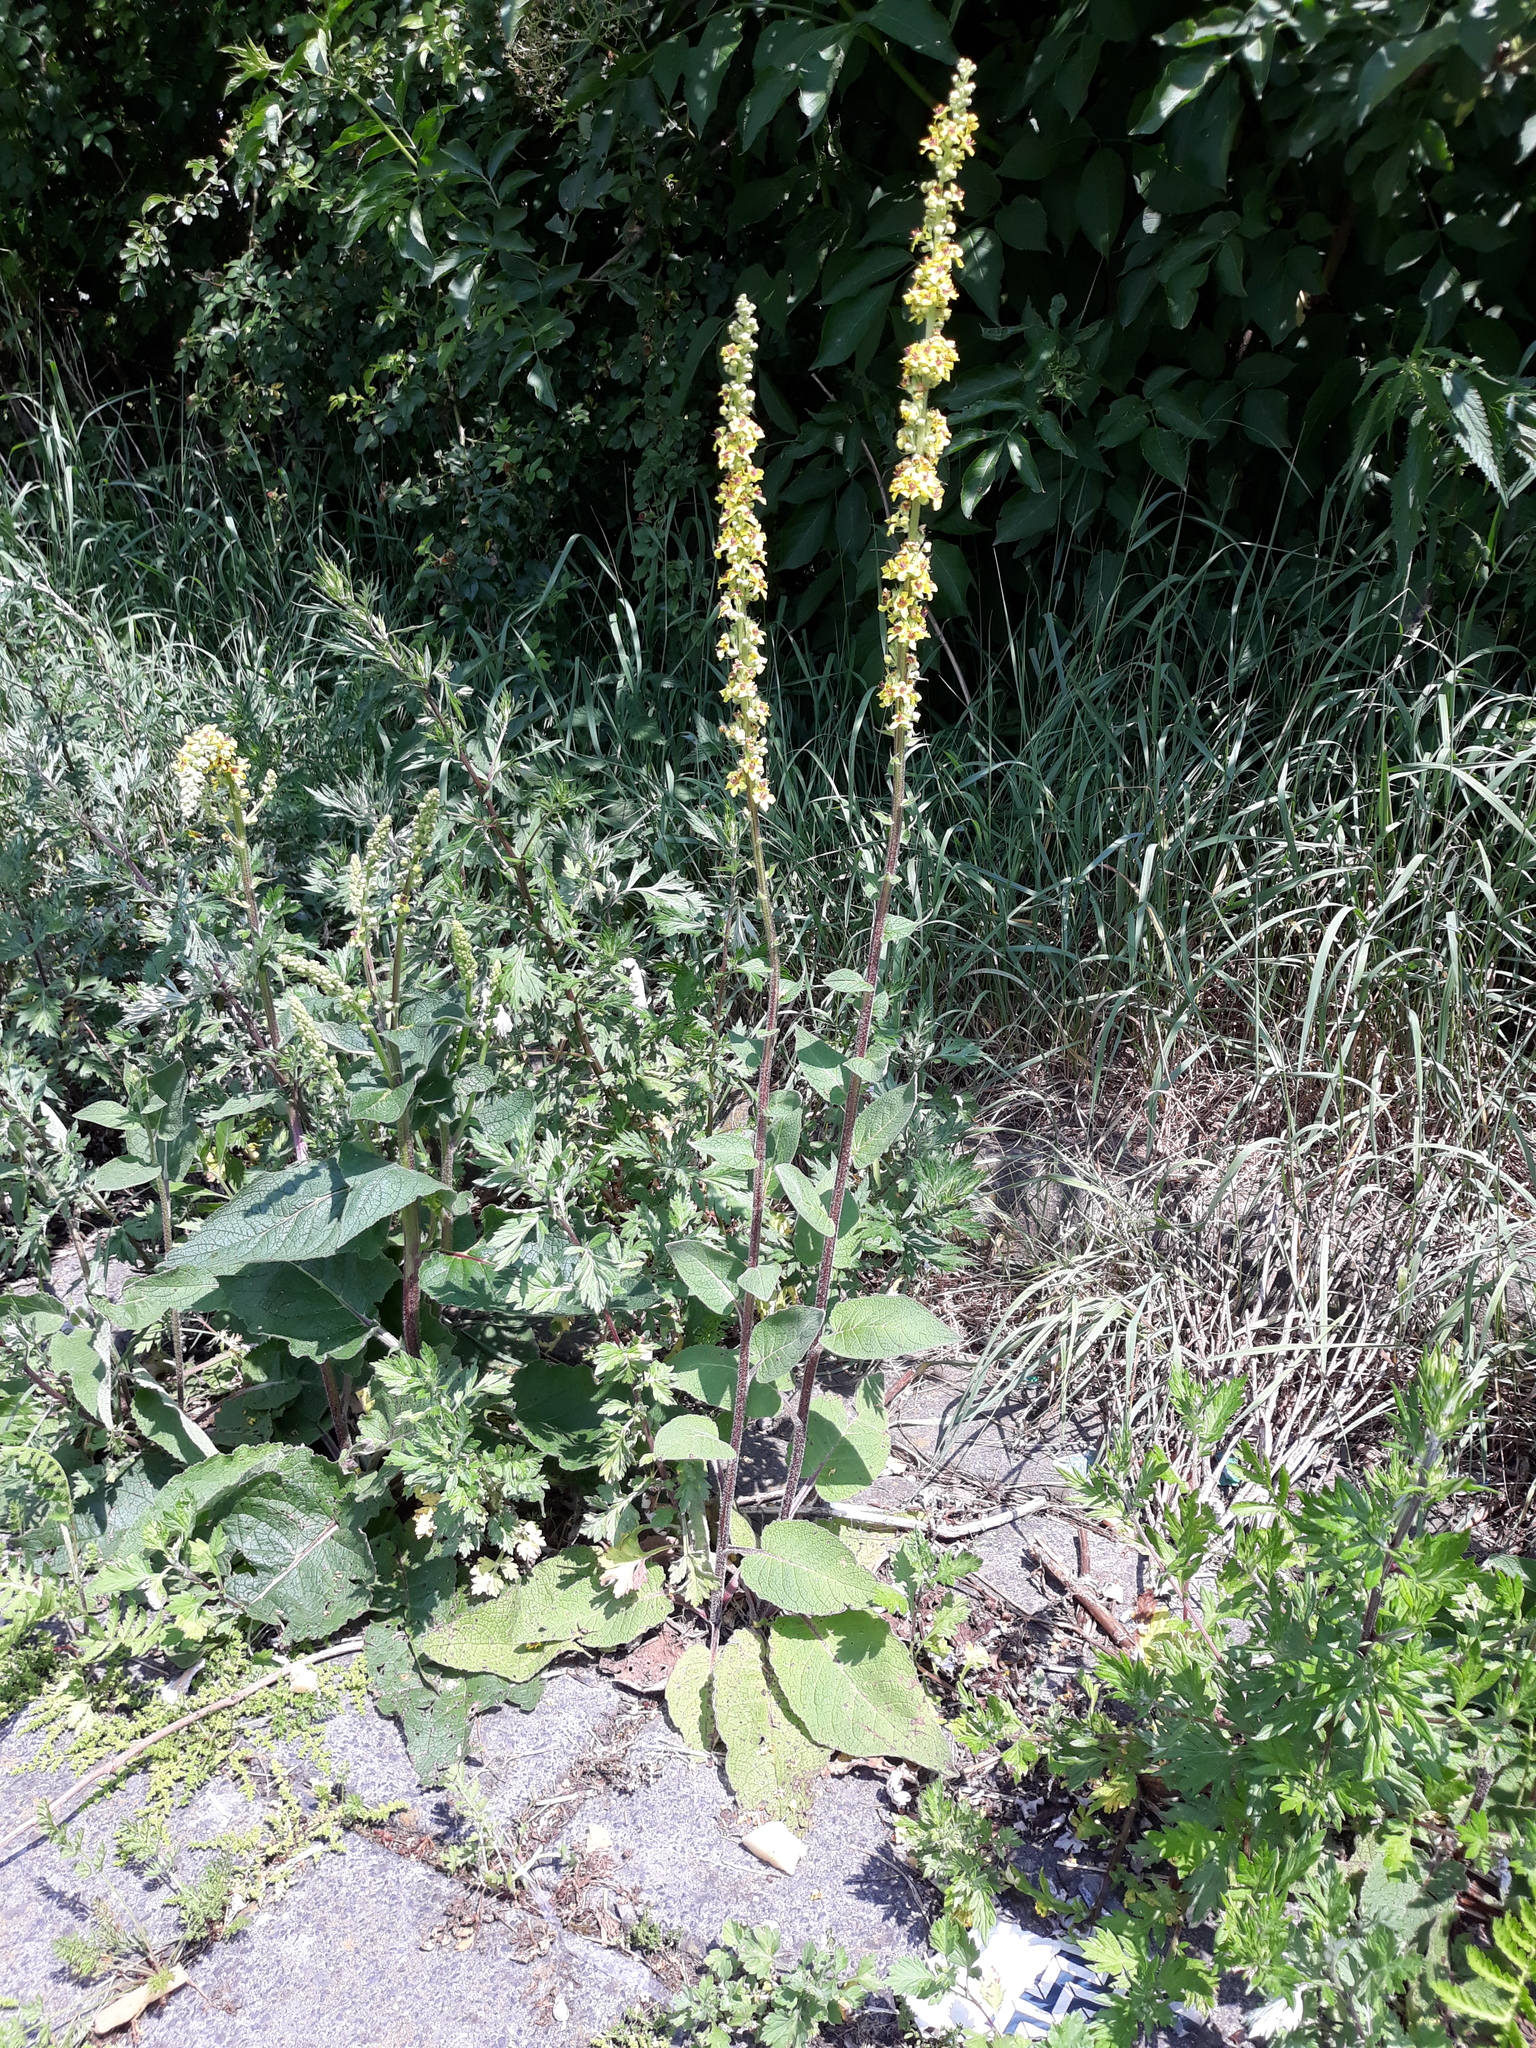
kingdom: Plantae
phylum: Tracheophyta
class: Magnoliopsida
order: Lamiales
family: Scrophulariaceae
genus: Verbascum
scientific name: Verbascum nigrum
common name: Dark mullein
